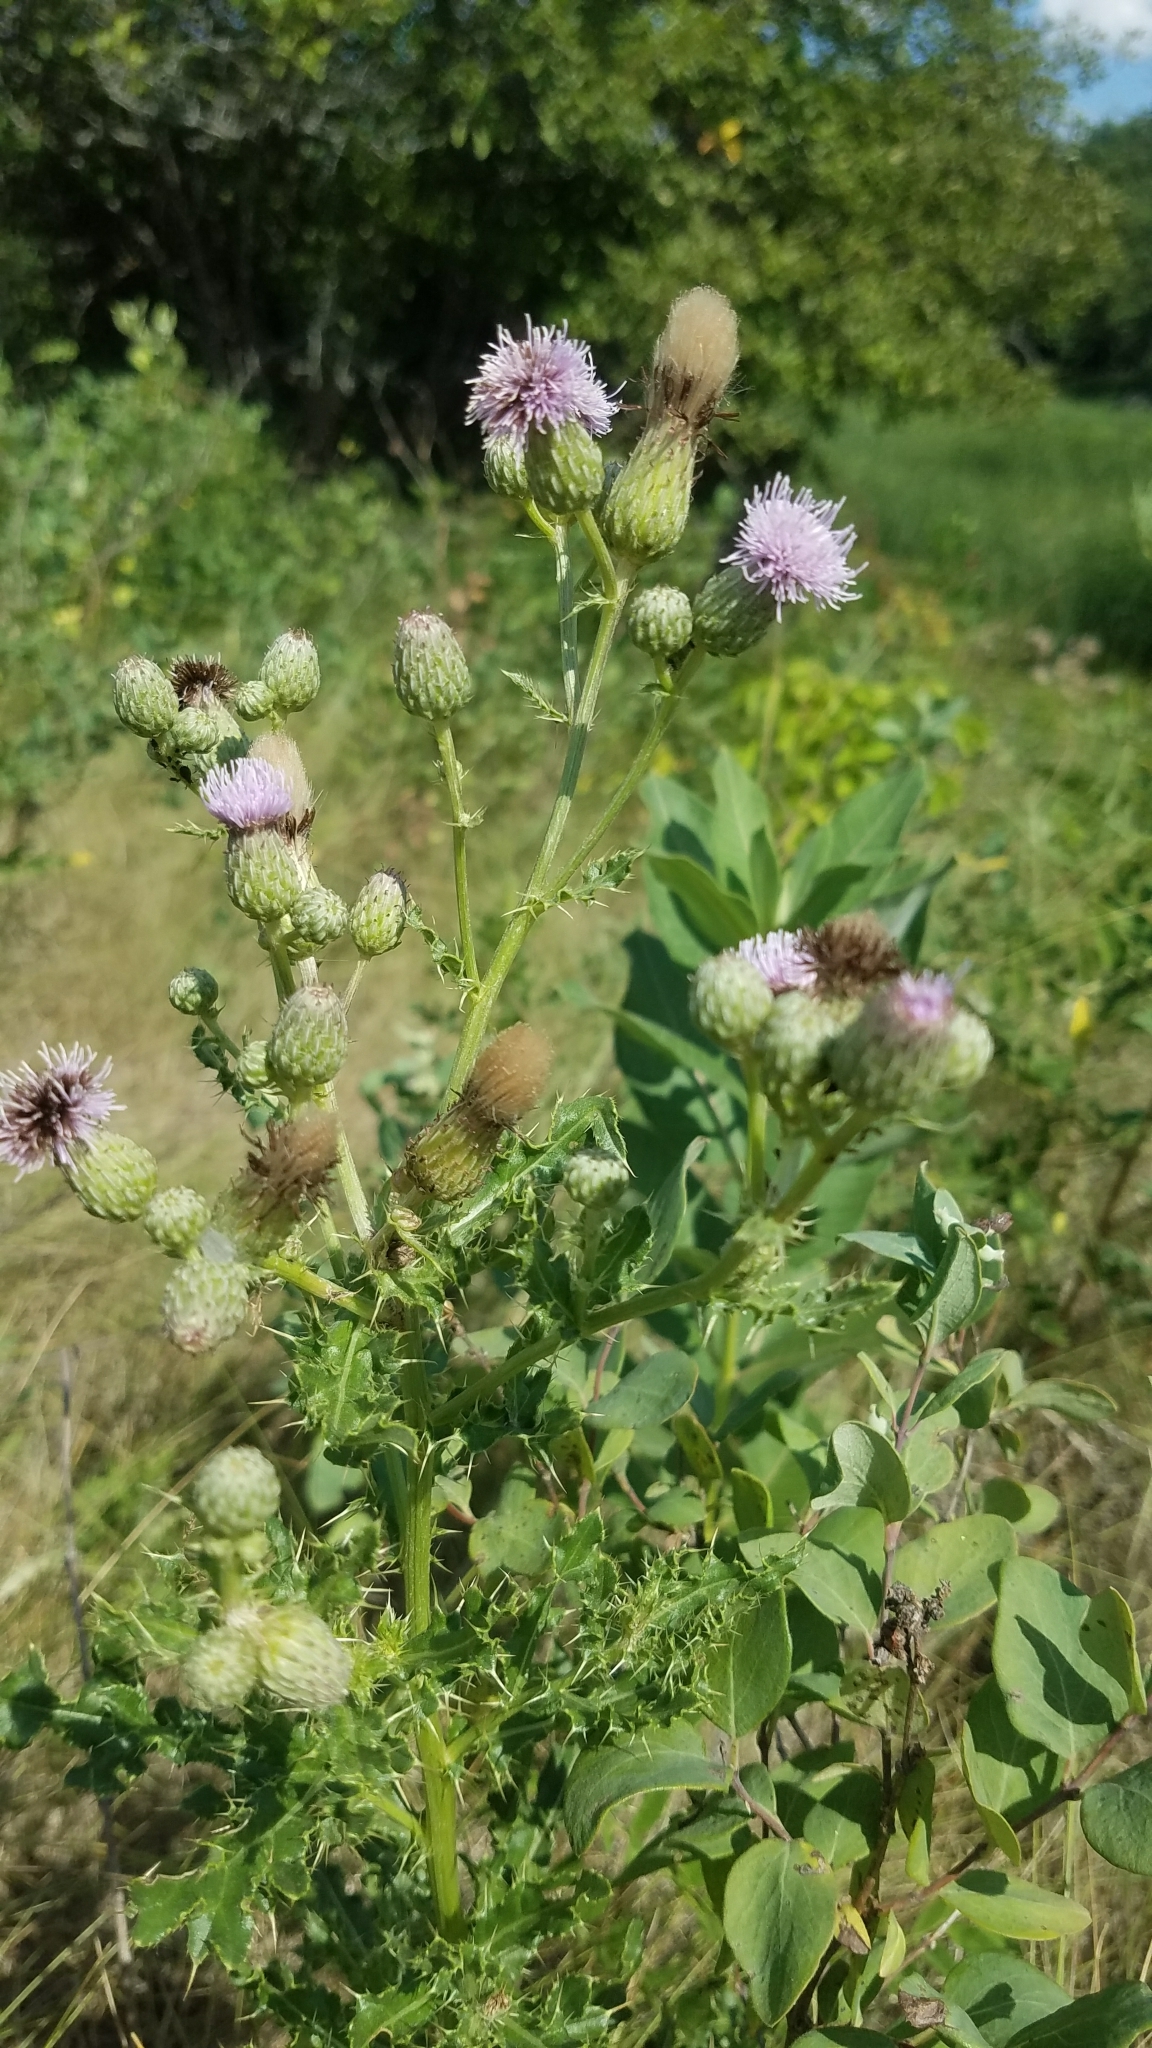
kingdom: Plantae
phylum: Tracheophyta
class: Magnoliopsida
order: Asterales
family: Asteraceae
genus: Cirsium
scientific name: Cirsium arvense
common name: Creeping thistle
